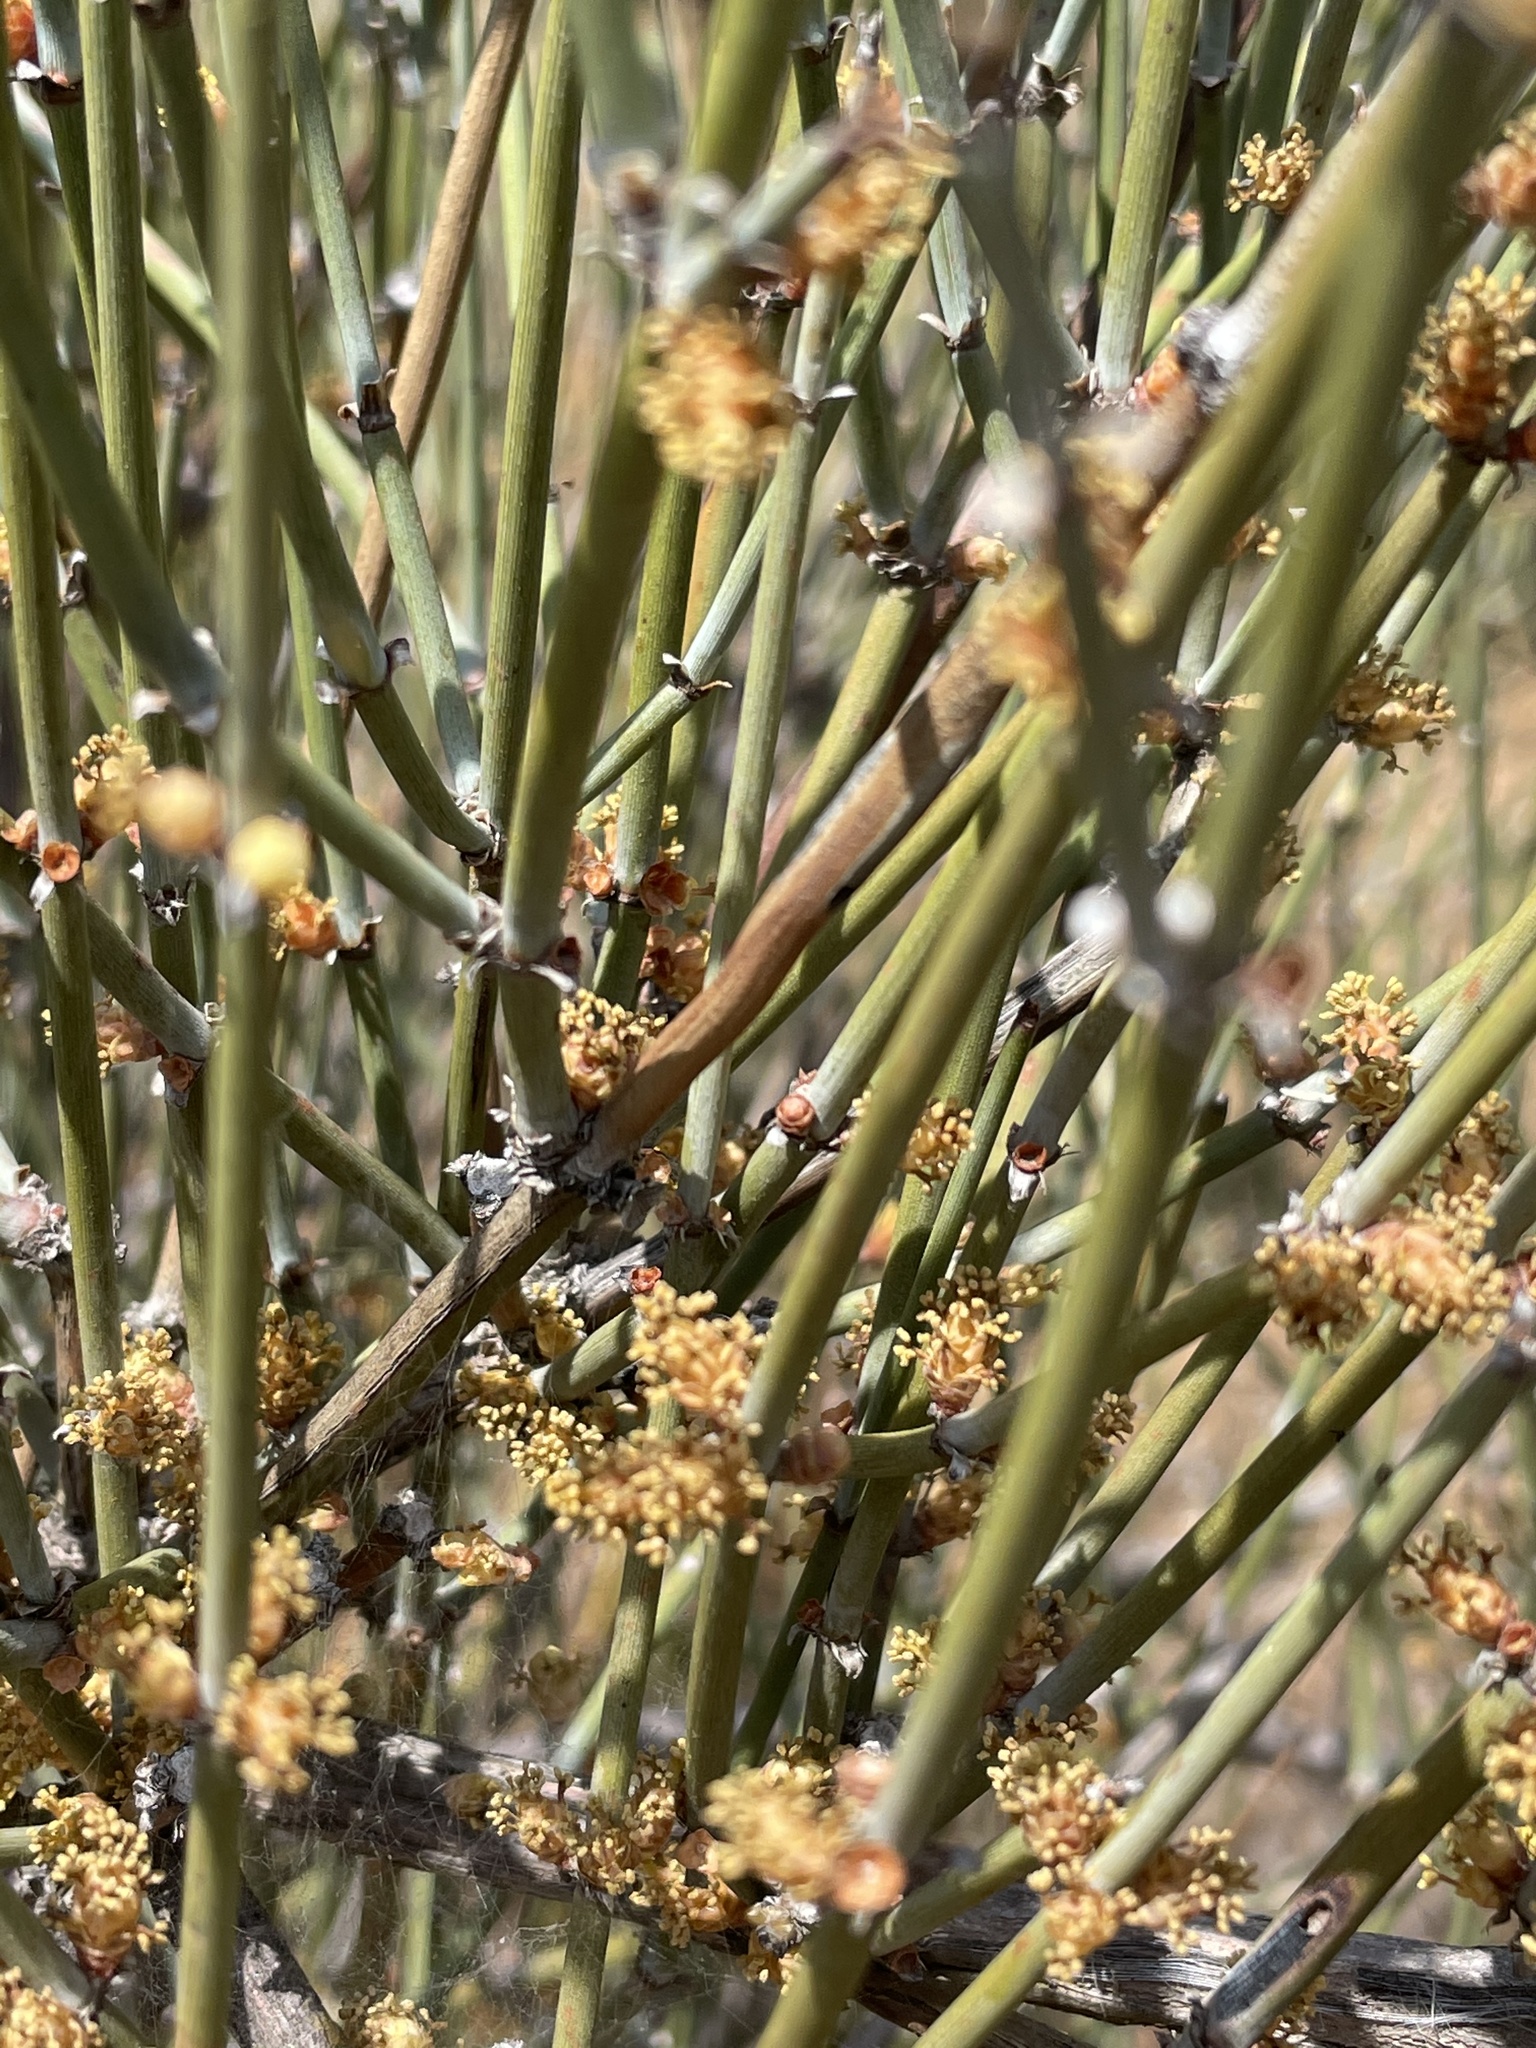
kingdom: Plantae
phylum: Tracheophyta
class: Gnetopsida
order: Ephedrales
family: Ephedraceae
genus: Ephedra
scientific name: Ephedra californica
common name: California ephedra
